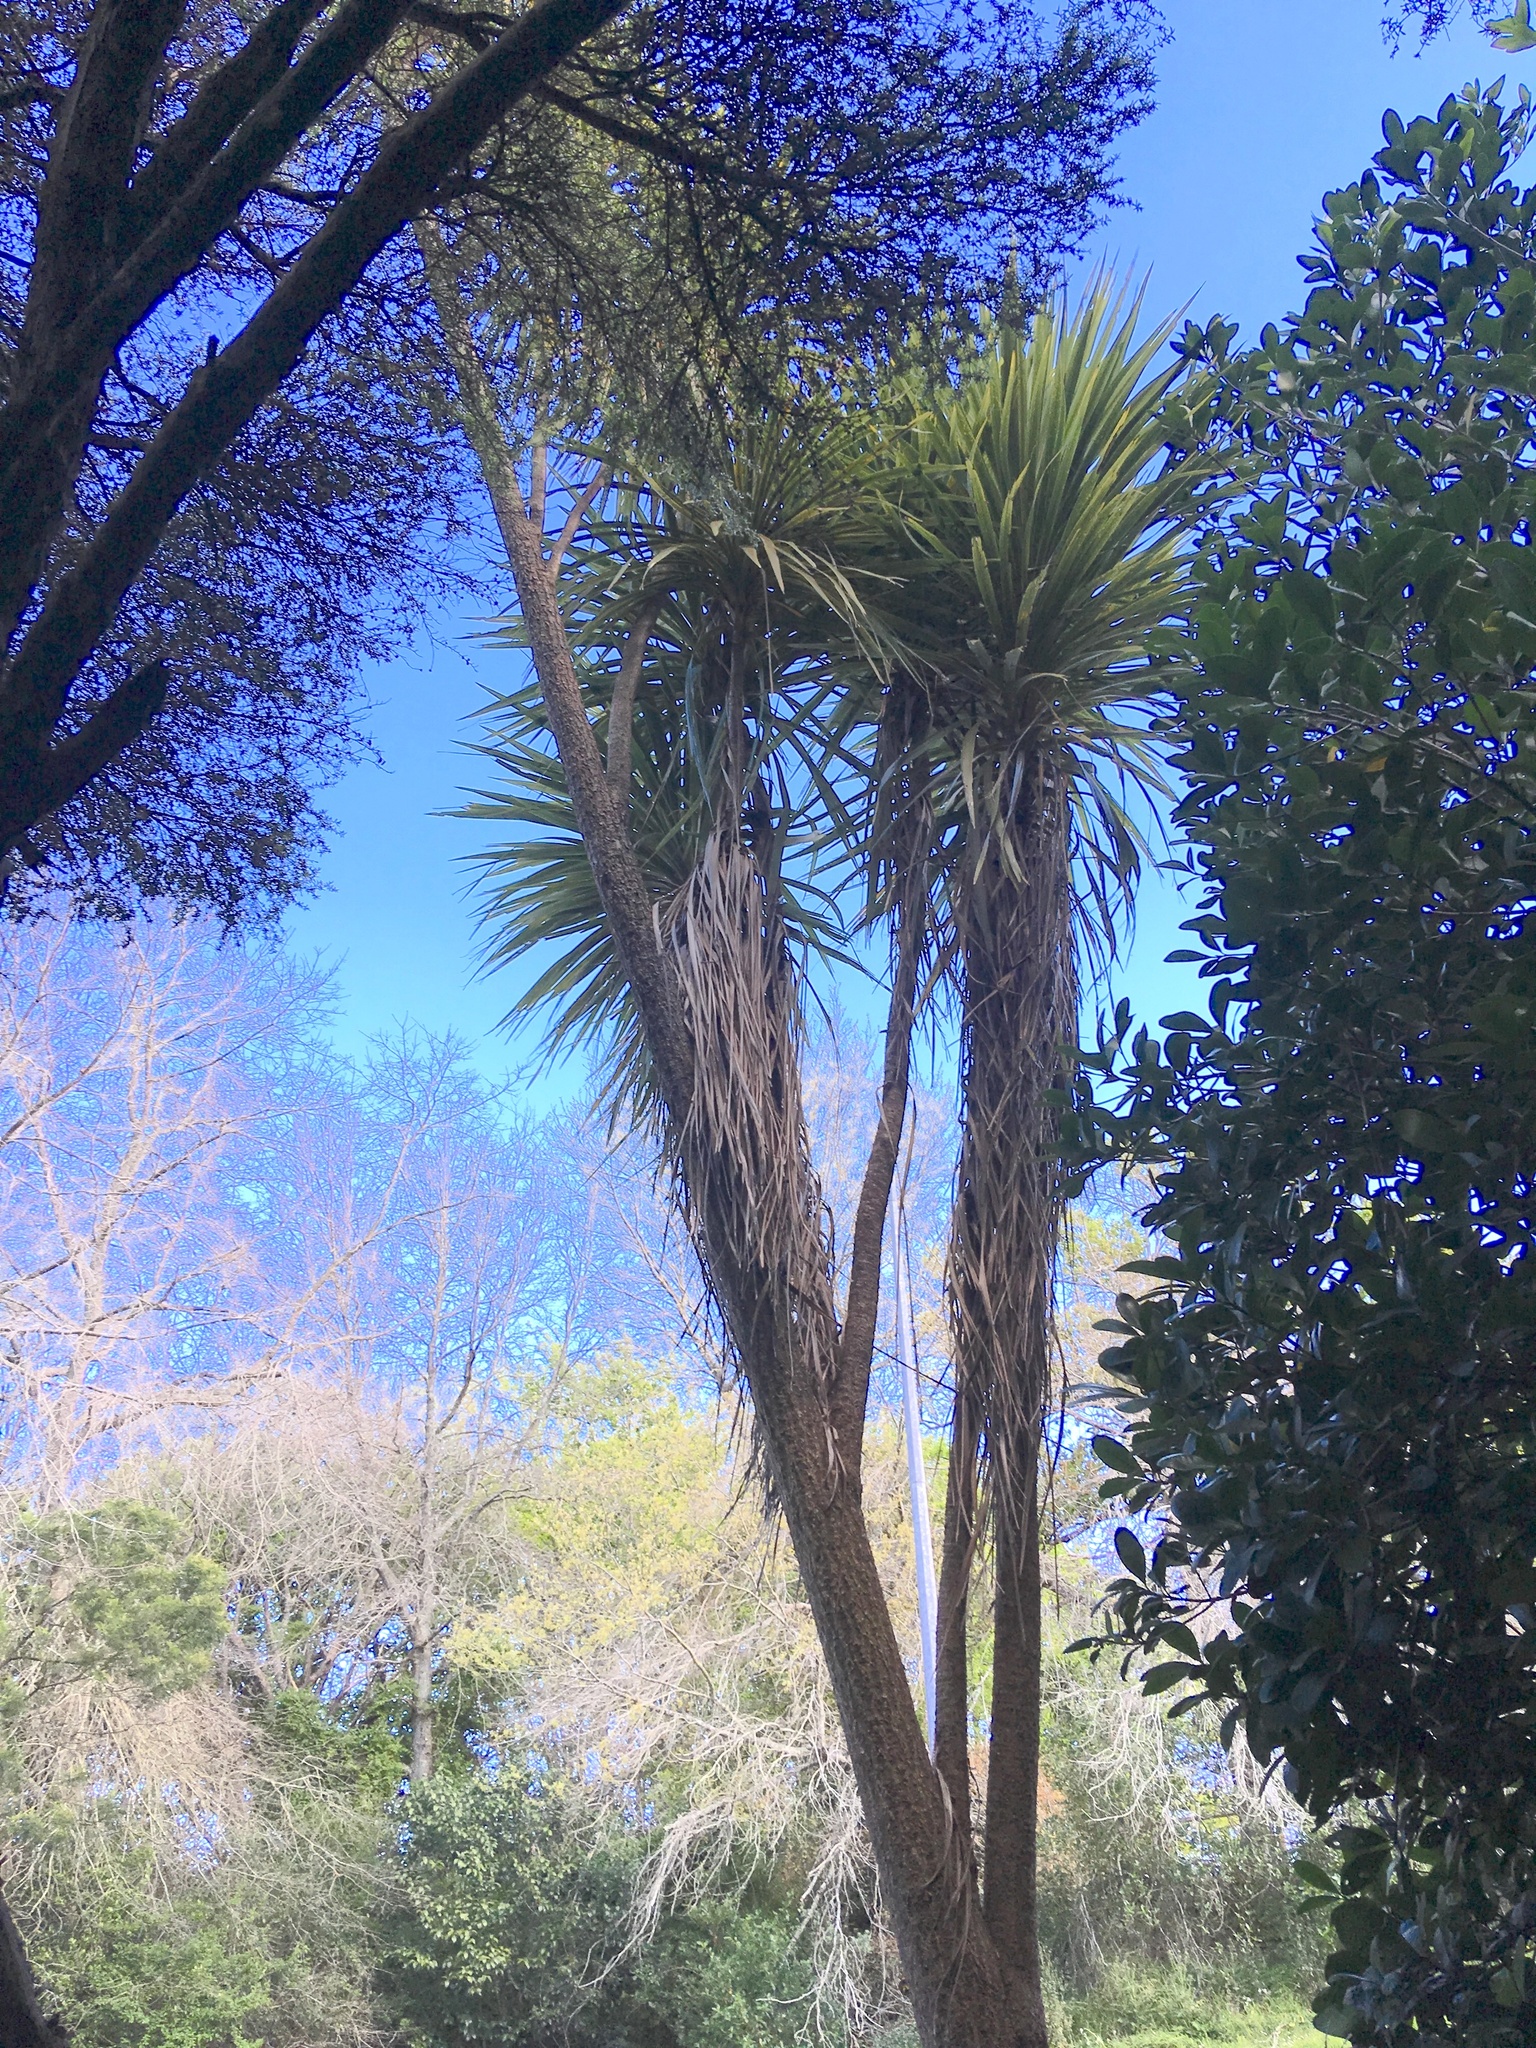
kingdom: Plantae
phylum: Tracheophyta
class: Liliopsida
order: Asparagales
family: Asparagaceae
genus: Cordyline
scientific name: Cordyline australis
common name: Cabbage-palm
